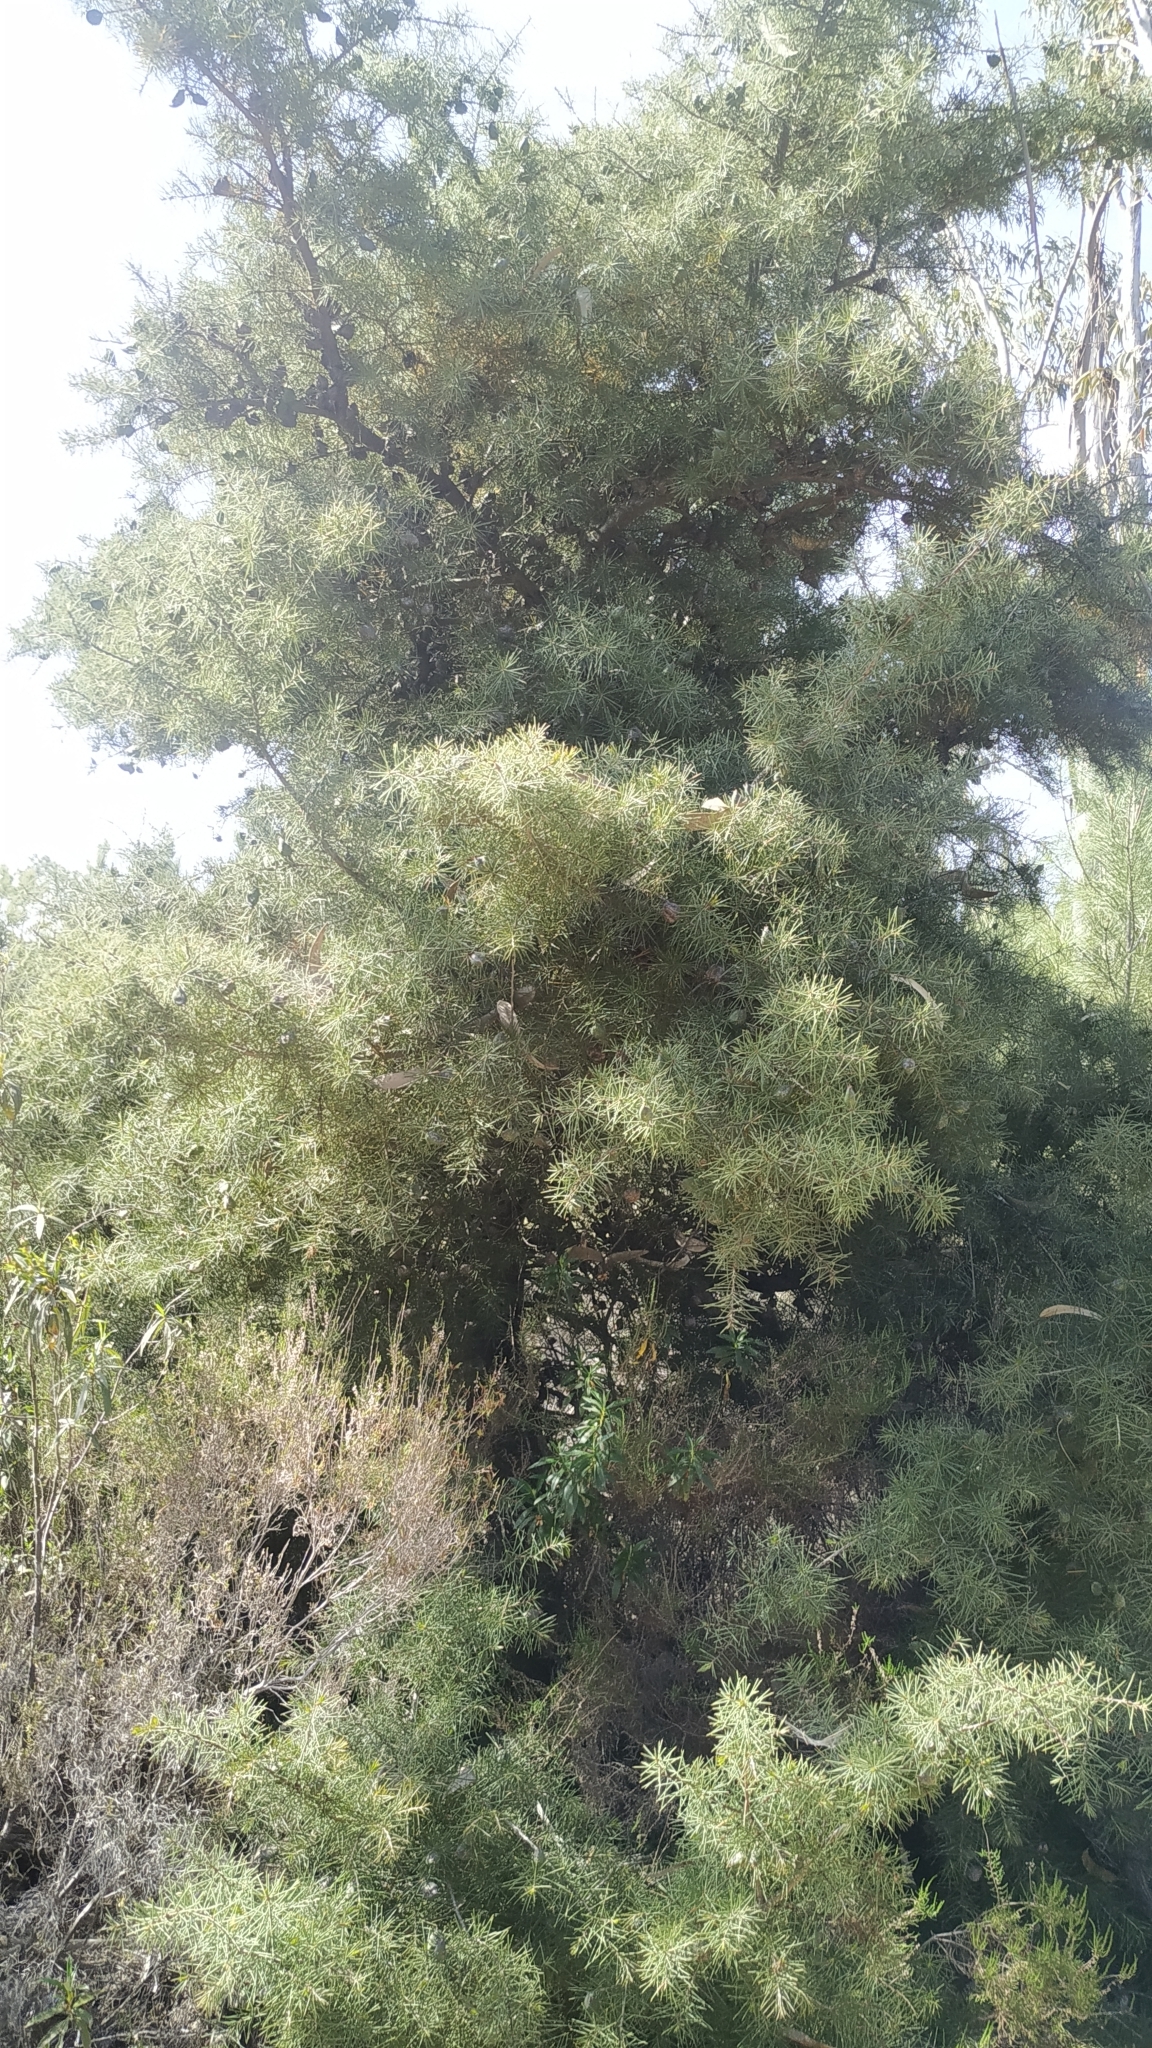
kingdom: Plantae
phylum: Tracheophyta
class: Magnoliopsida
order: Proteales
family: Proteaceae
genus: Hakea
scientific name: Hakea decurrens
